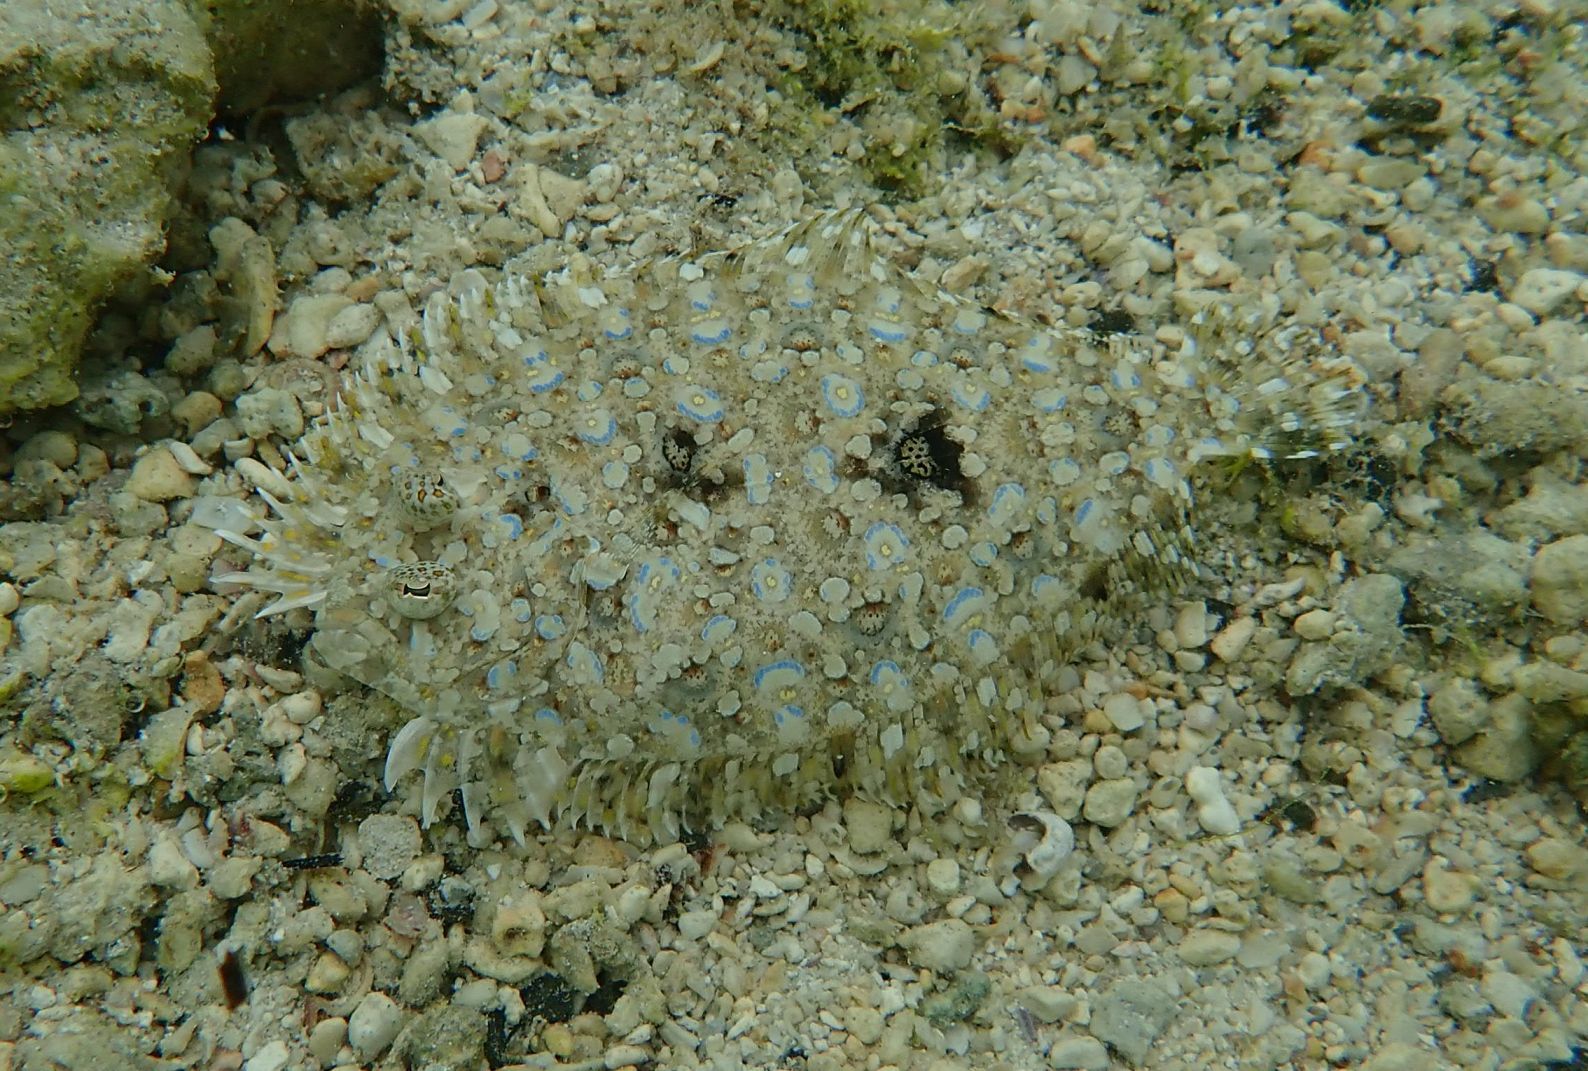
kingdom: Animalia
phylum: Chordata
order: Pleuronectiformes
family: Bothidae
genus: Bothus
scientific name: Bothus pantherinus
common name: Leopard flounder
